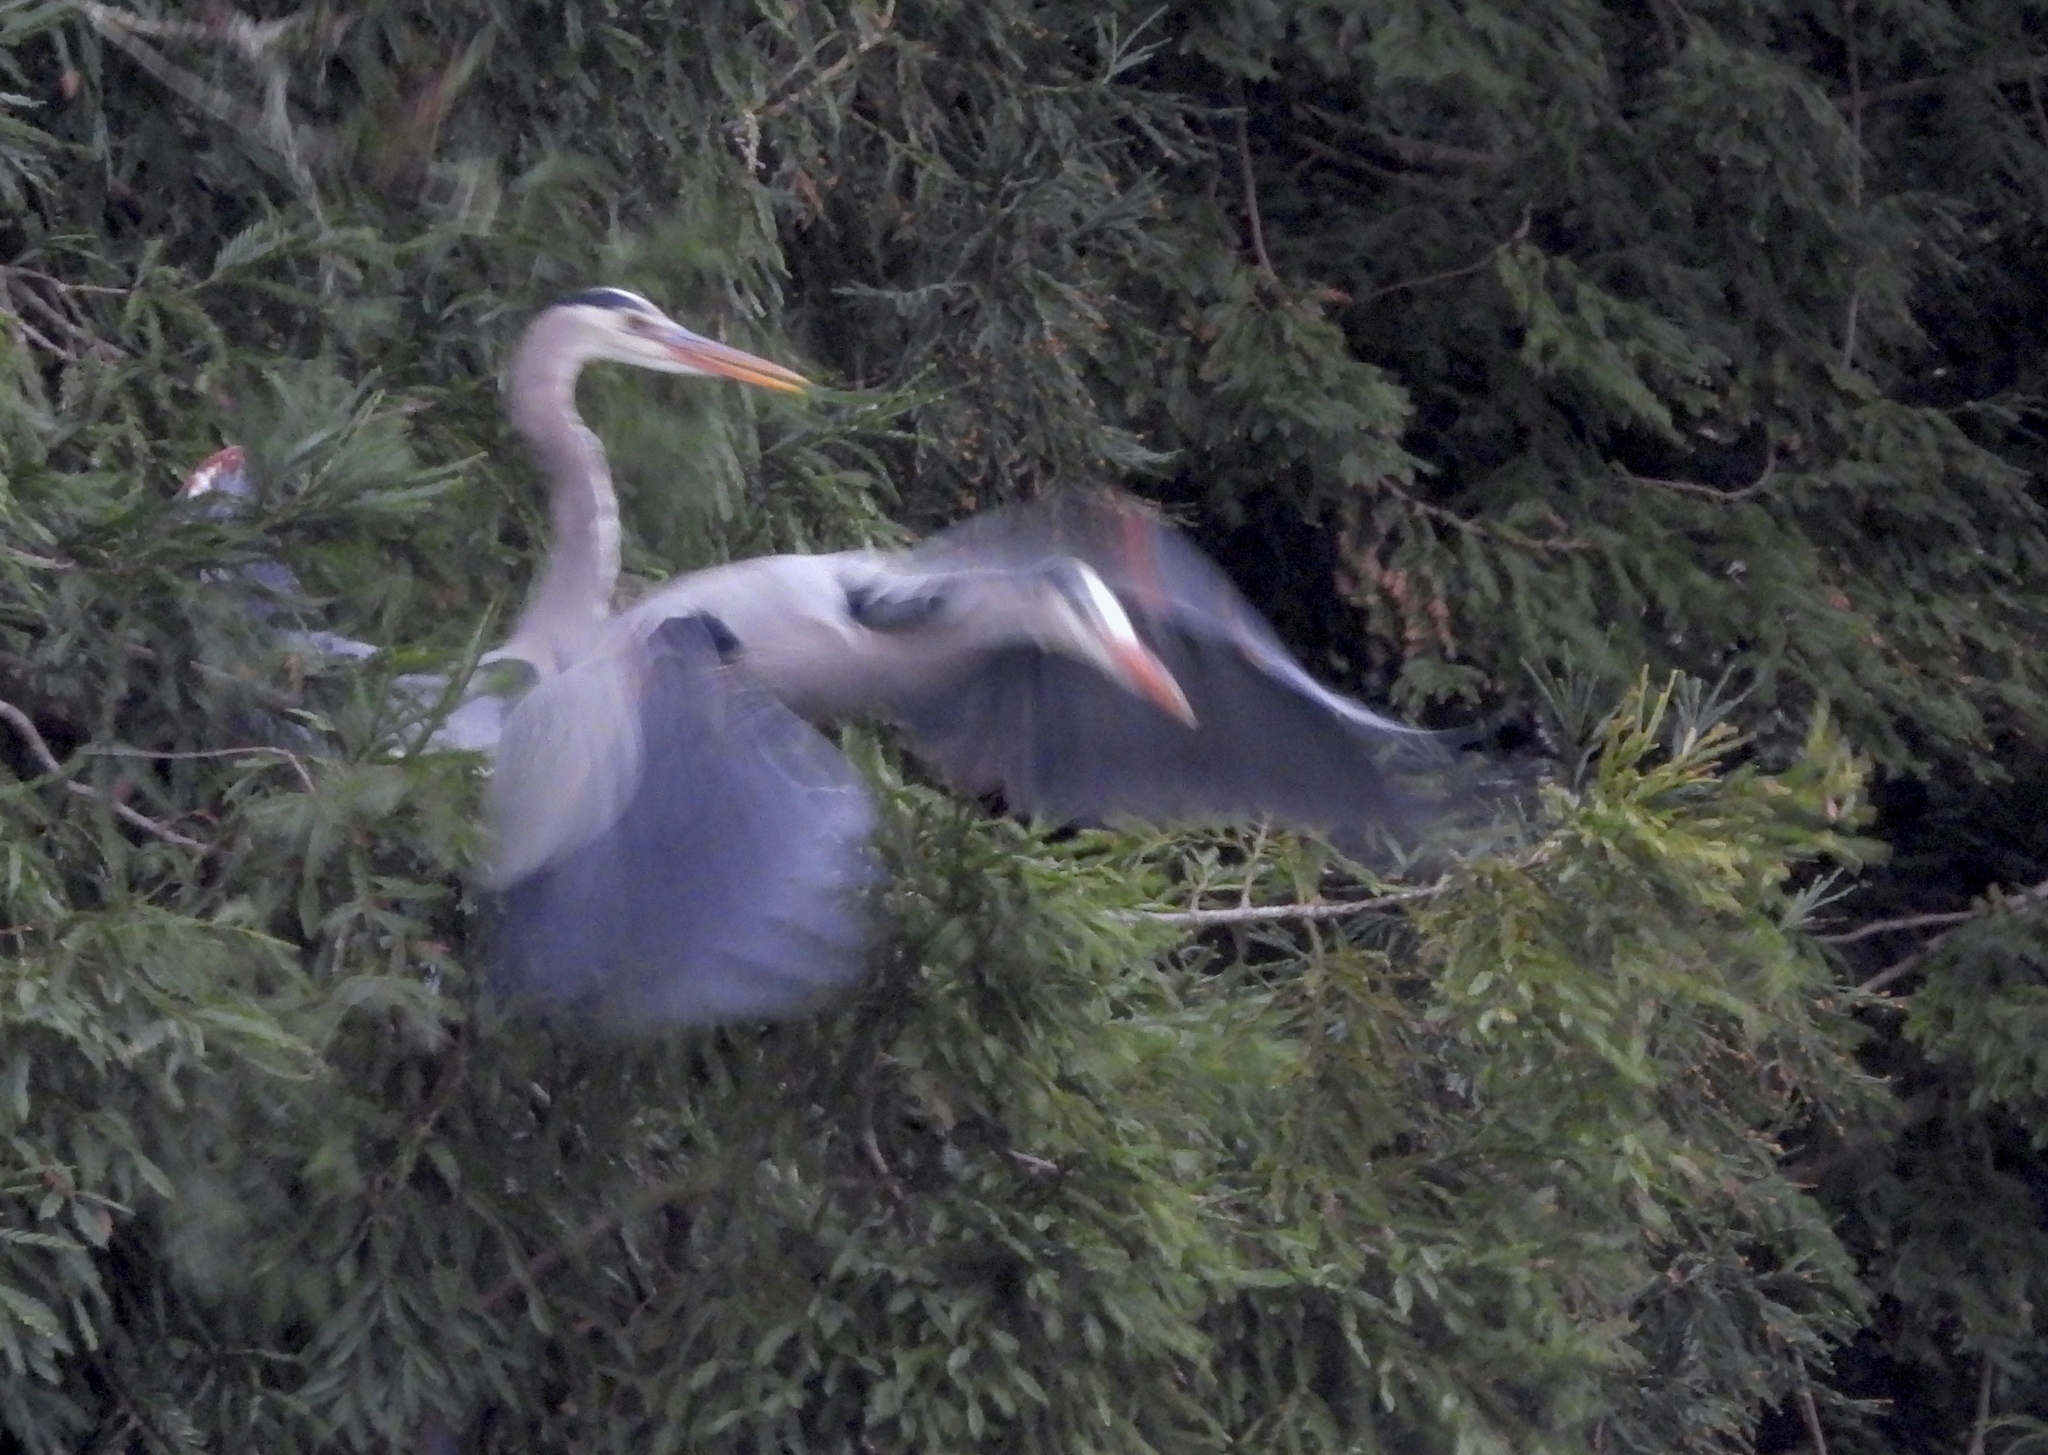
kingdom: Animalia
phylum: Chordata
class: Aves
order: Pelecaniformes
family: Ardeidae
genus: Ardea
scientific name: Ardea herodias
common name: Great blue heron
